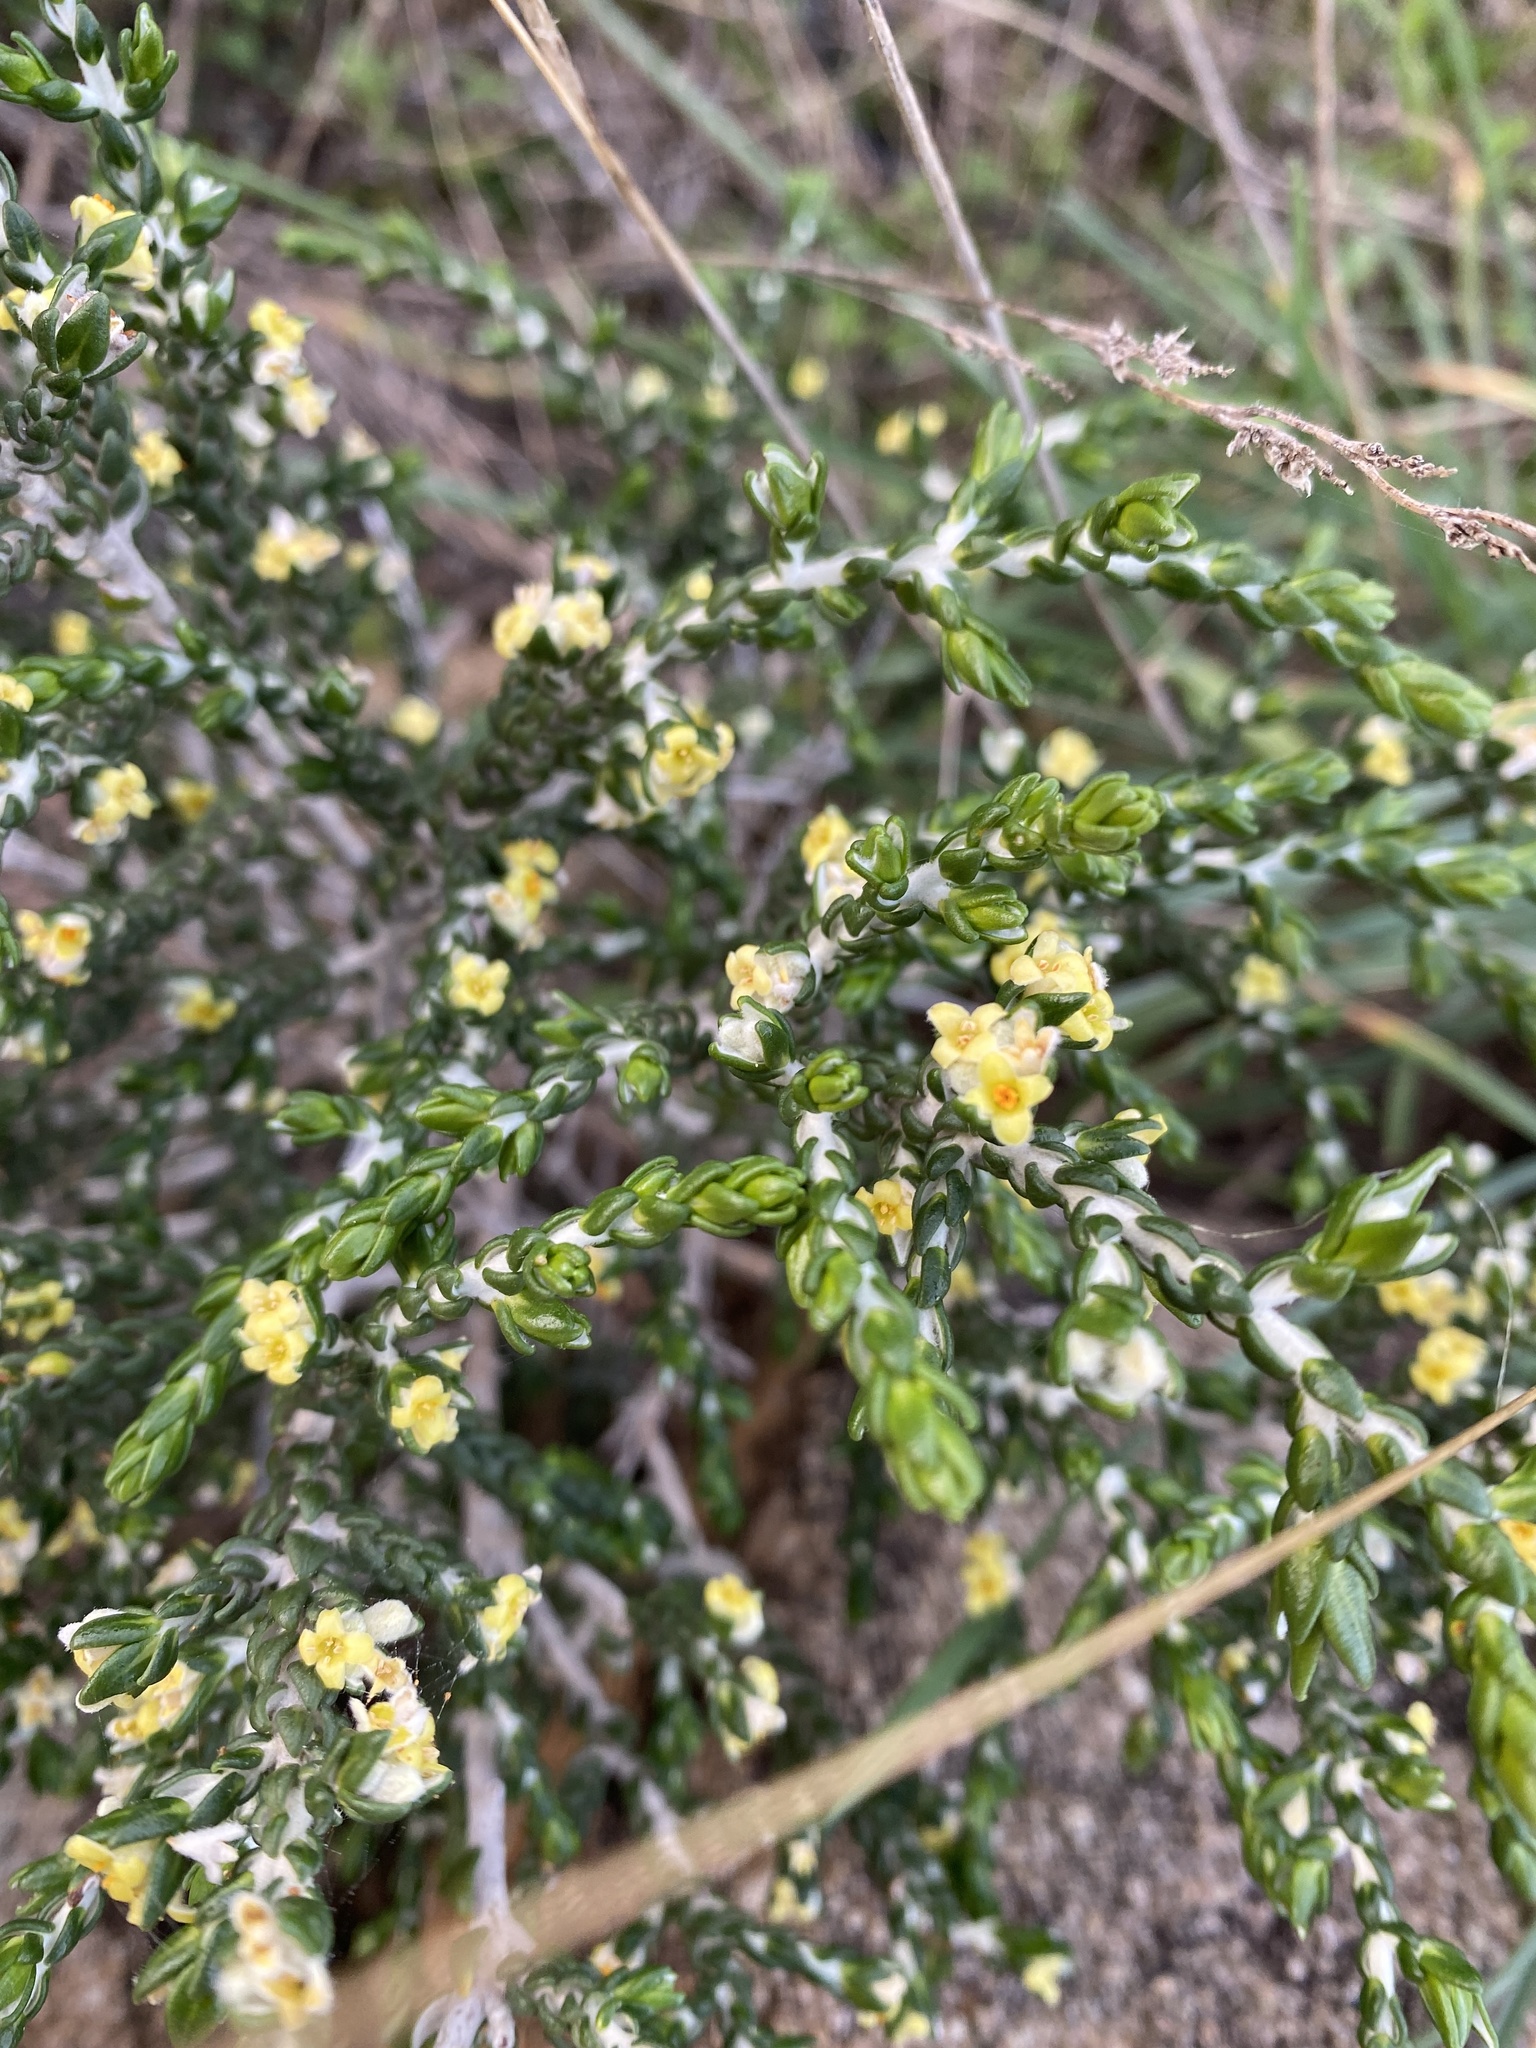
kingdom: Plantae
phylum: Tracheophyta
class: Magnoliopsida
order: Malvales
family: Thymelaeaceae
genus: Thymelaea
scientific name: Thymelaea hirsuta
